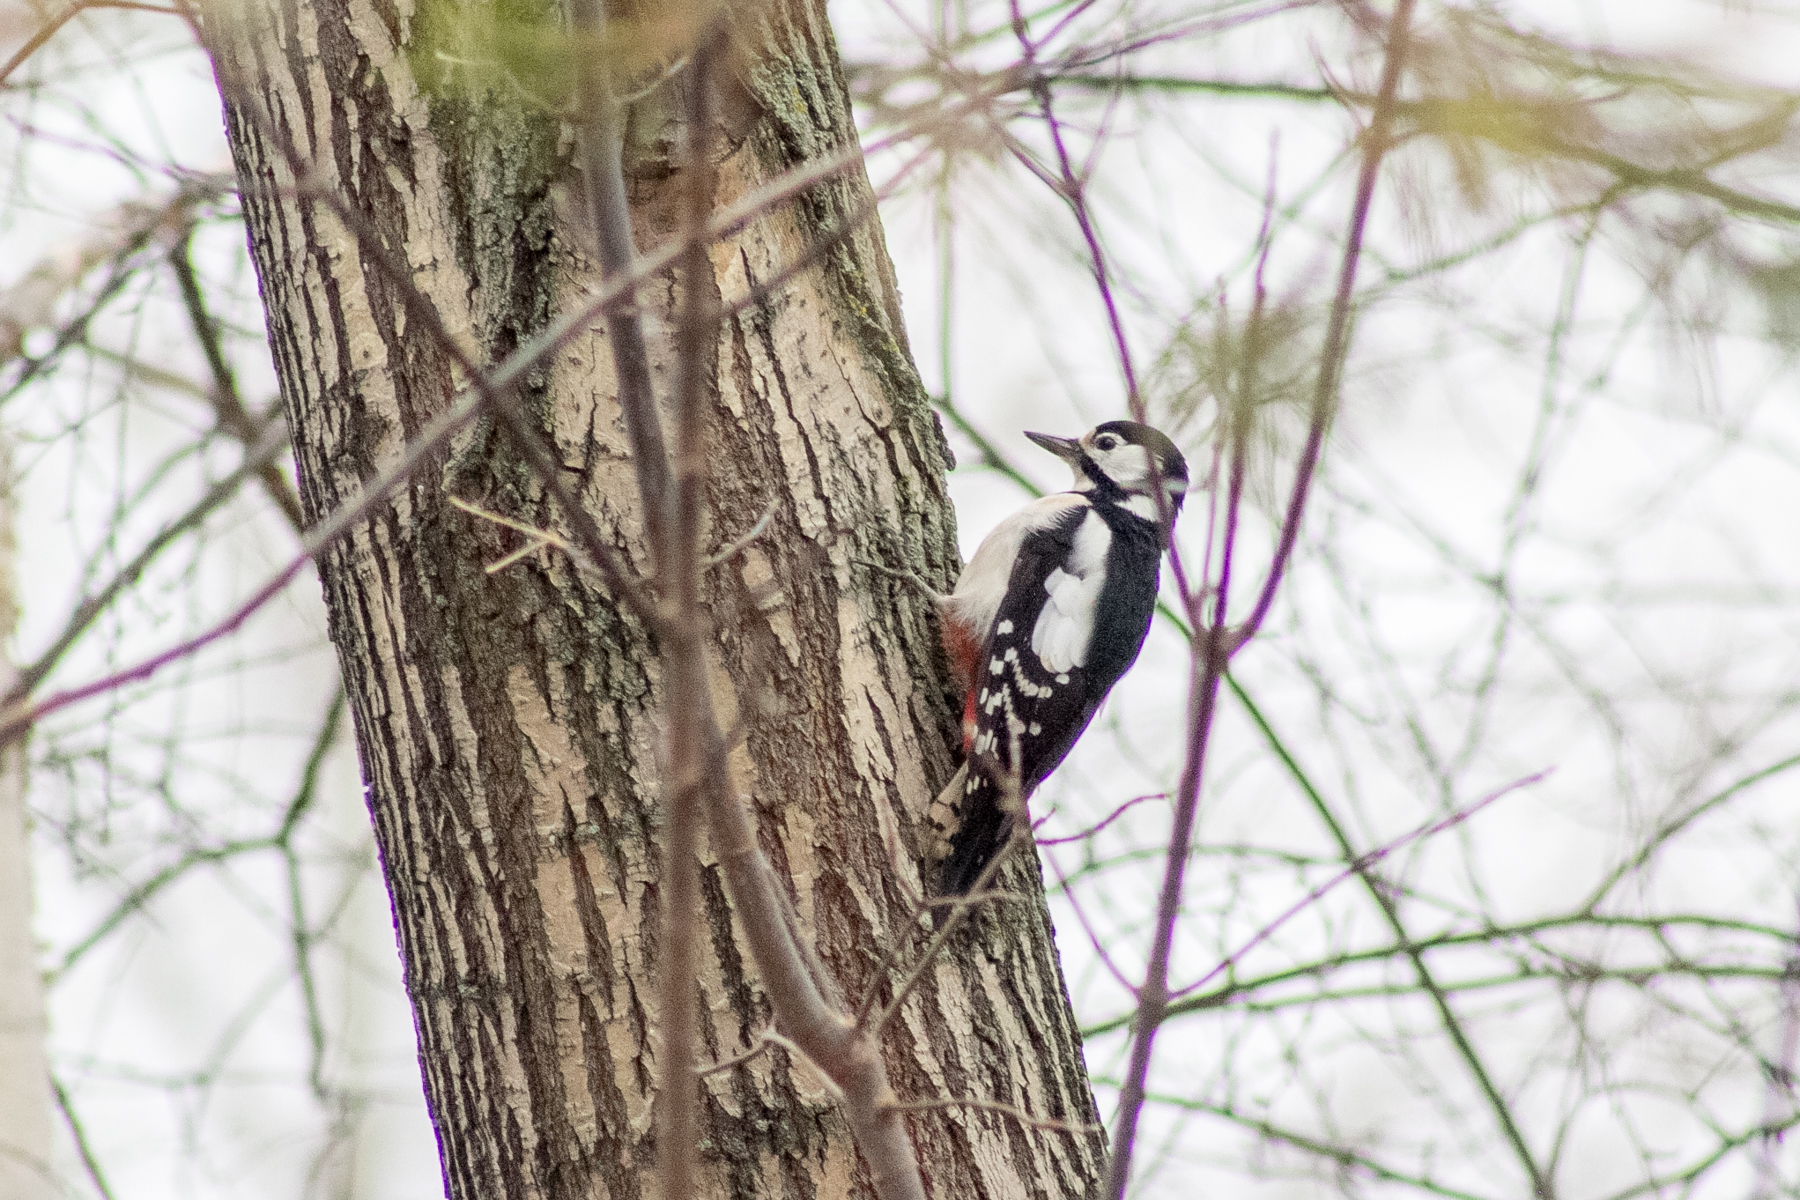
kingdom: Animalia
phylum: Chordata
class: Aves
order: Piciformes
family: Picidae
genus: Dendrocopos
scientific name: Dendrocopos major
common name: Great spotted woodpecker
